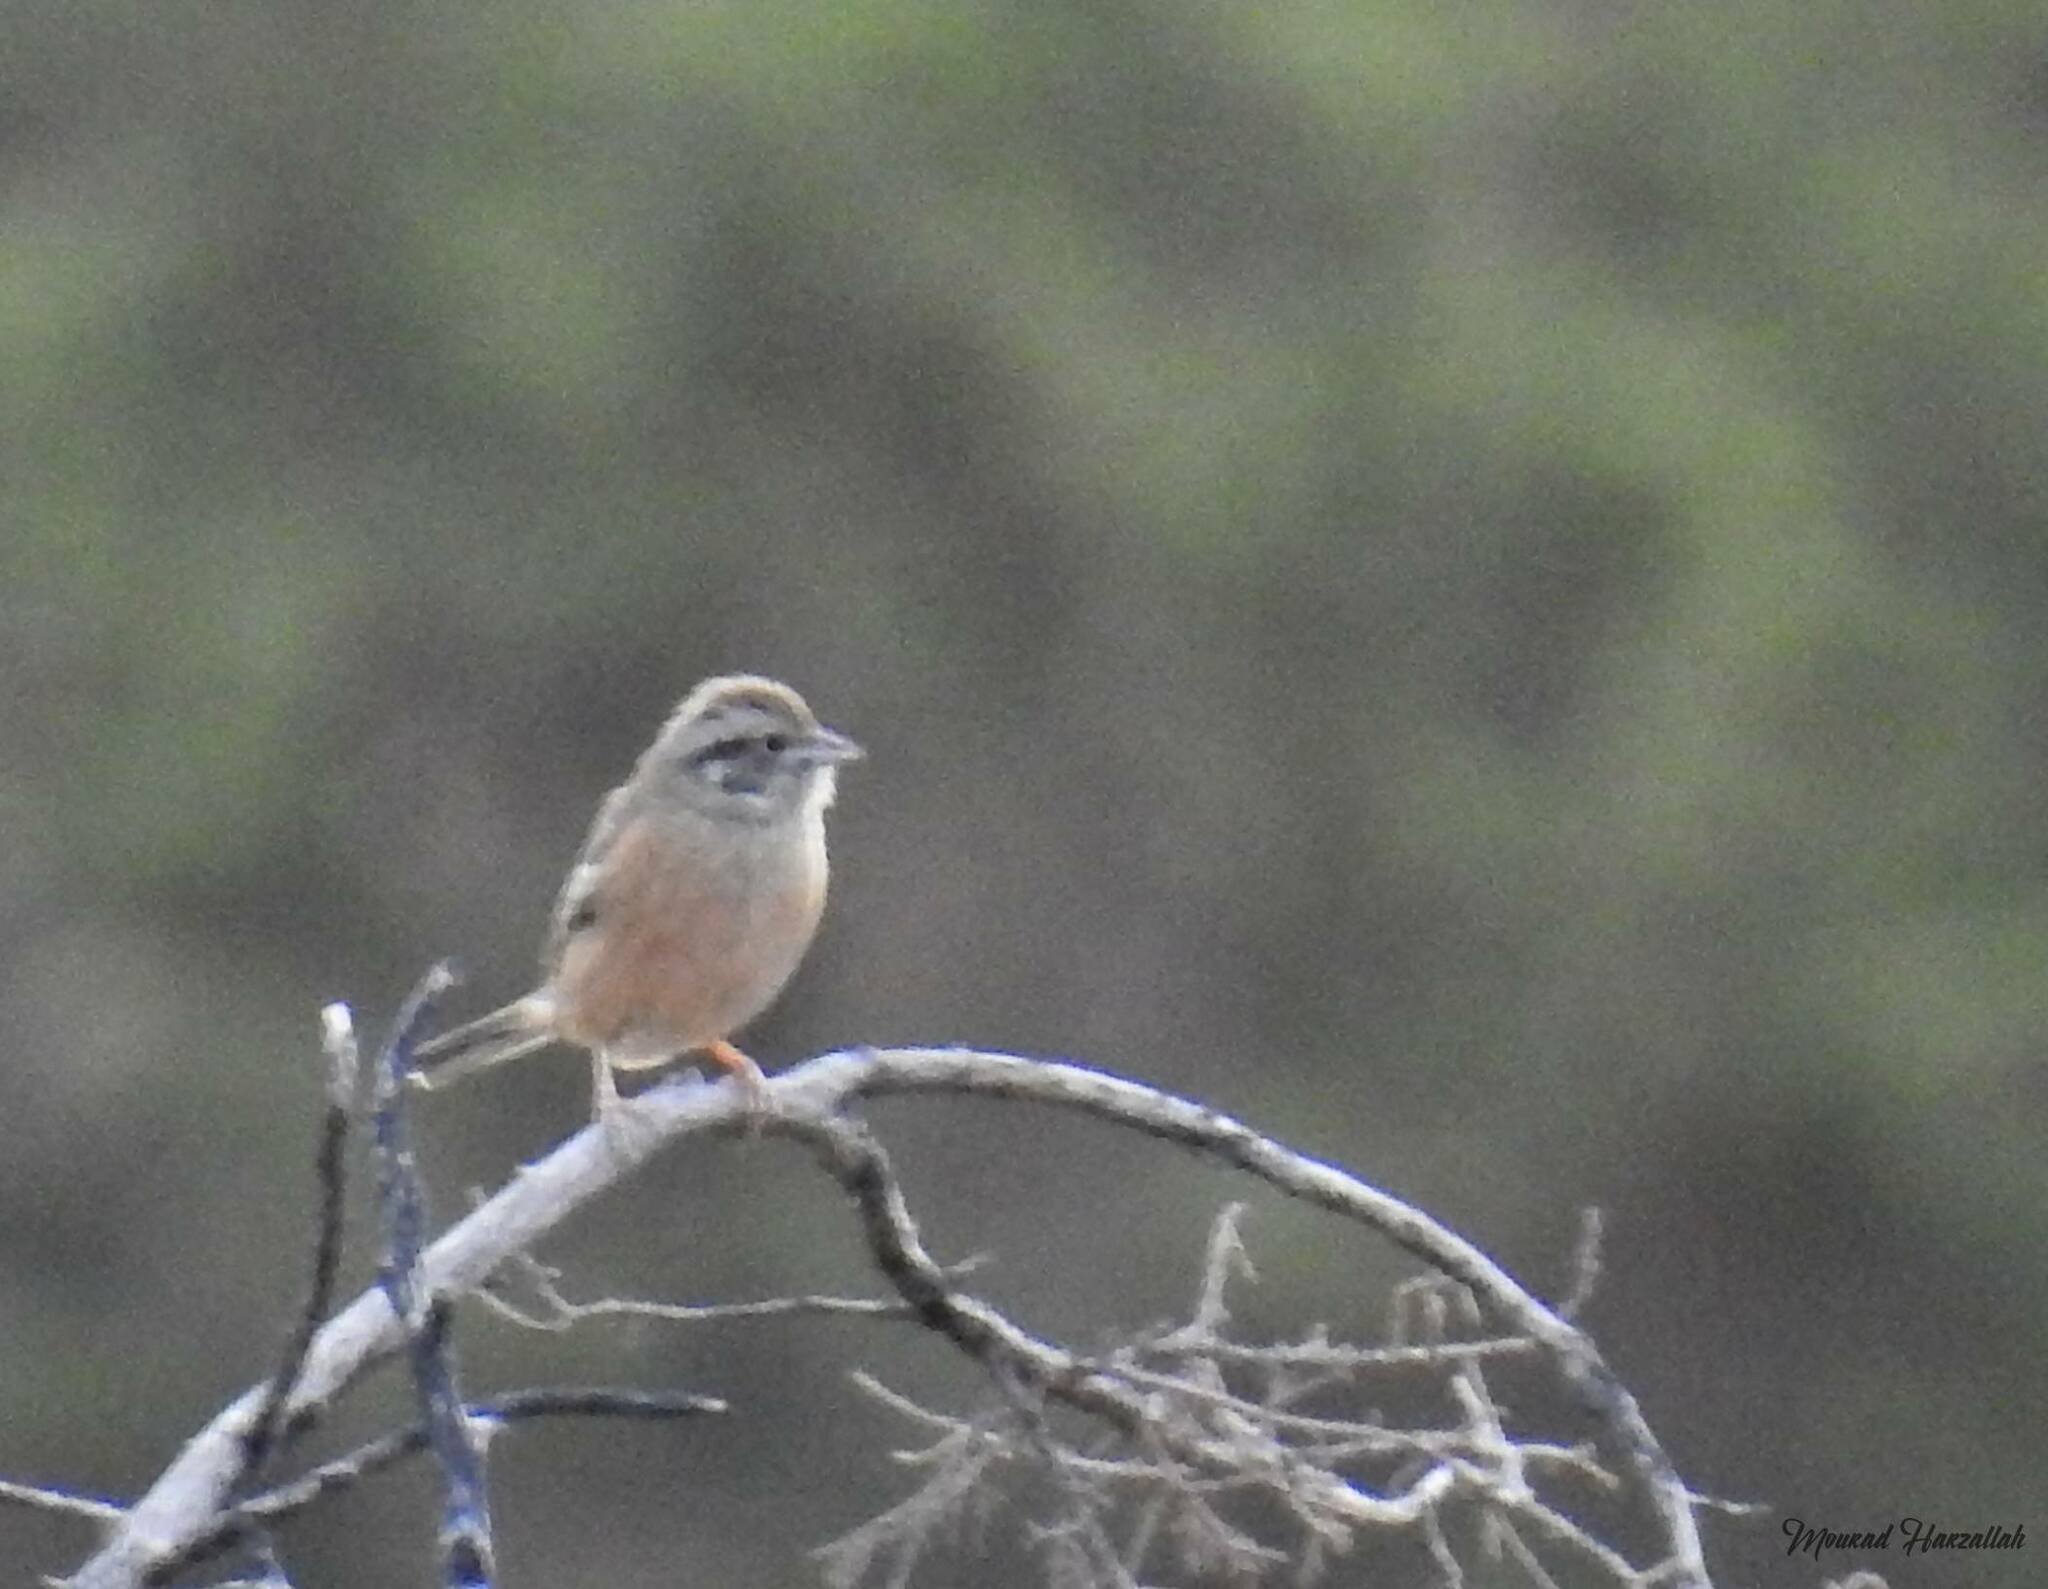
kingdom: Animalia
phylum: Chordata
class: Aves
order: Passeriformes
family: Emberizidae
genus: Emberiza
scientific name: Emberiza cia
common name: Rock bunting
